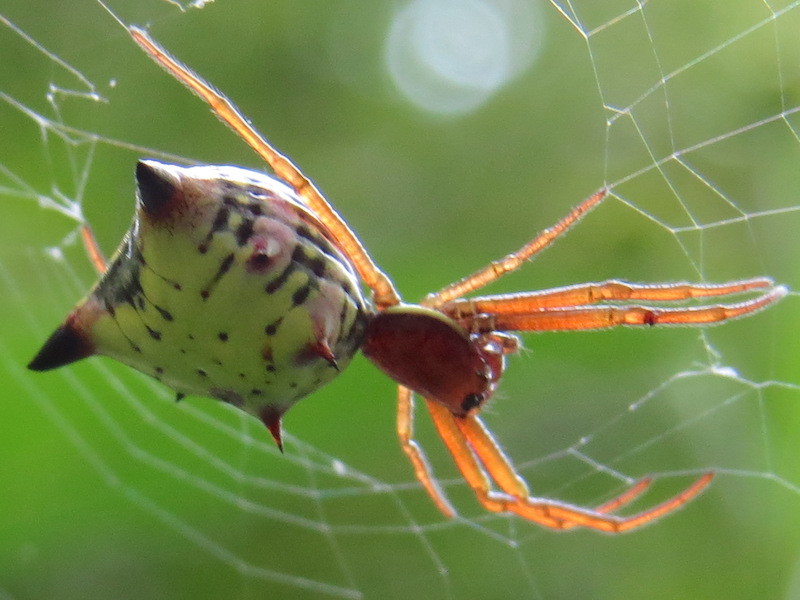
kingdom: Animalia
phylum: Arthropoda
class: Arachnida
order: Araneae
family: Araneidae
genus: Micrathena
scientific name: Micrathena sagittata
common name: Orb weavers
